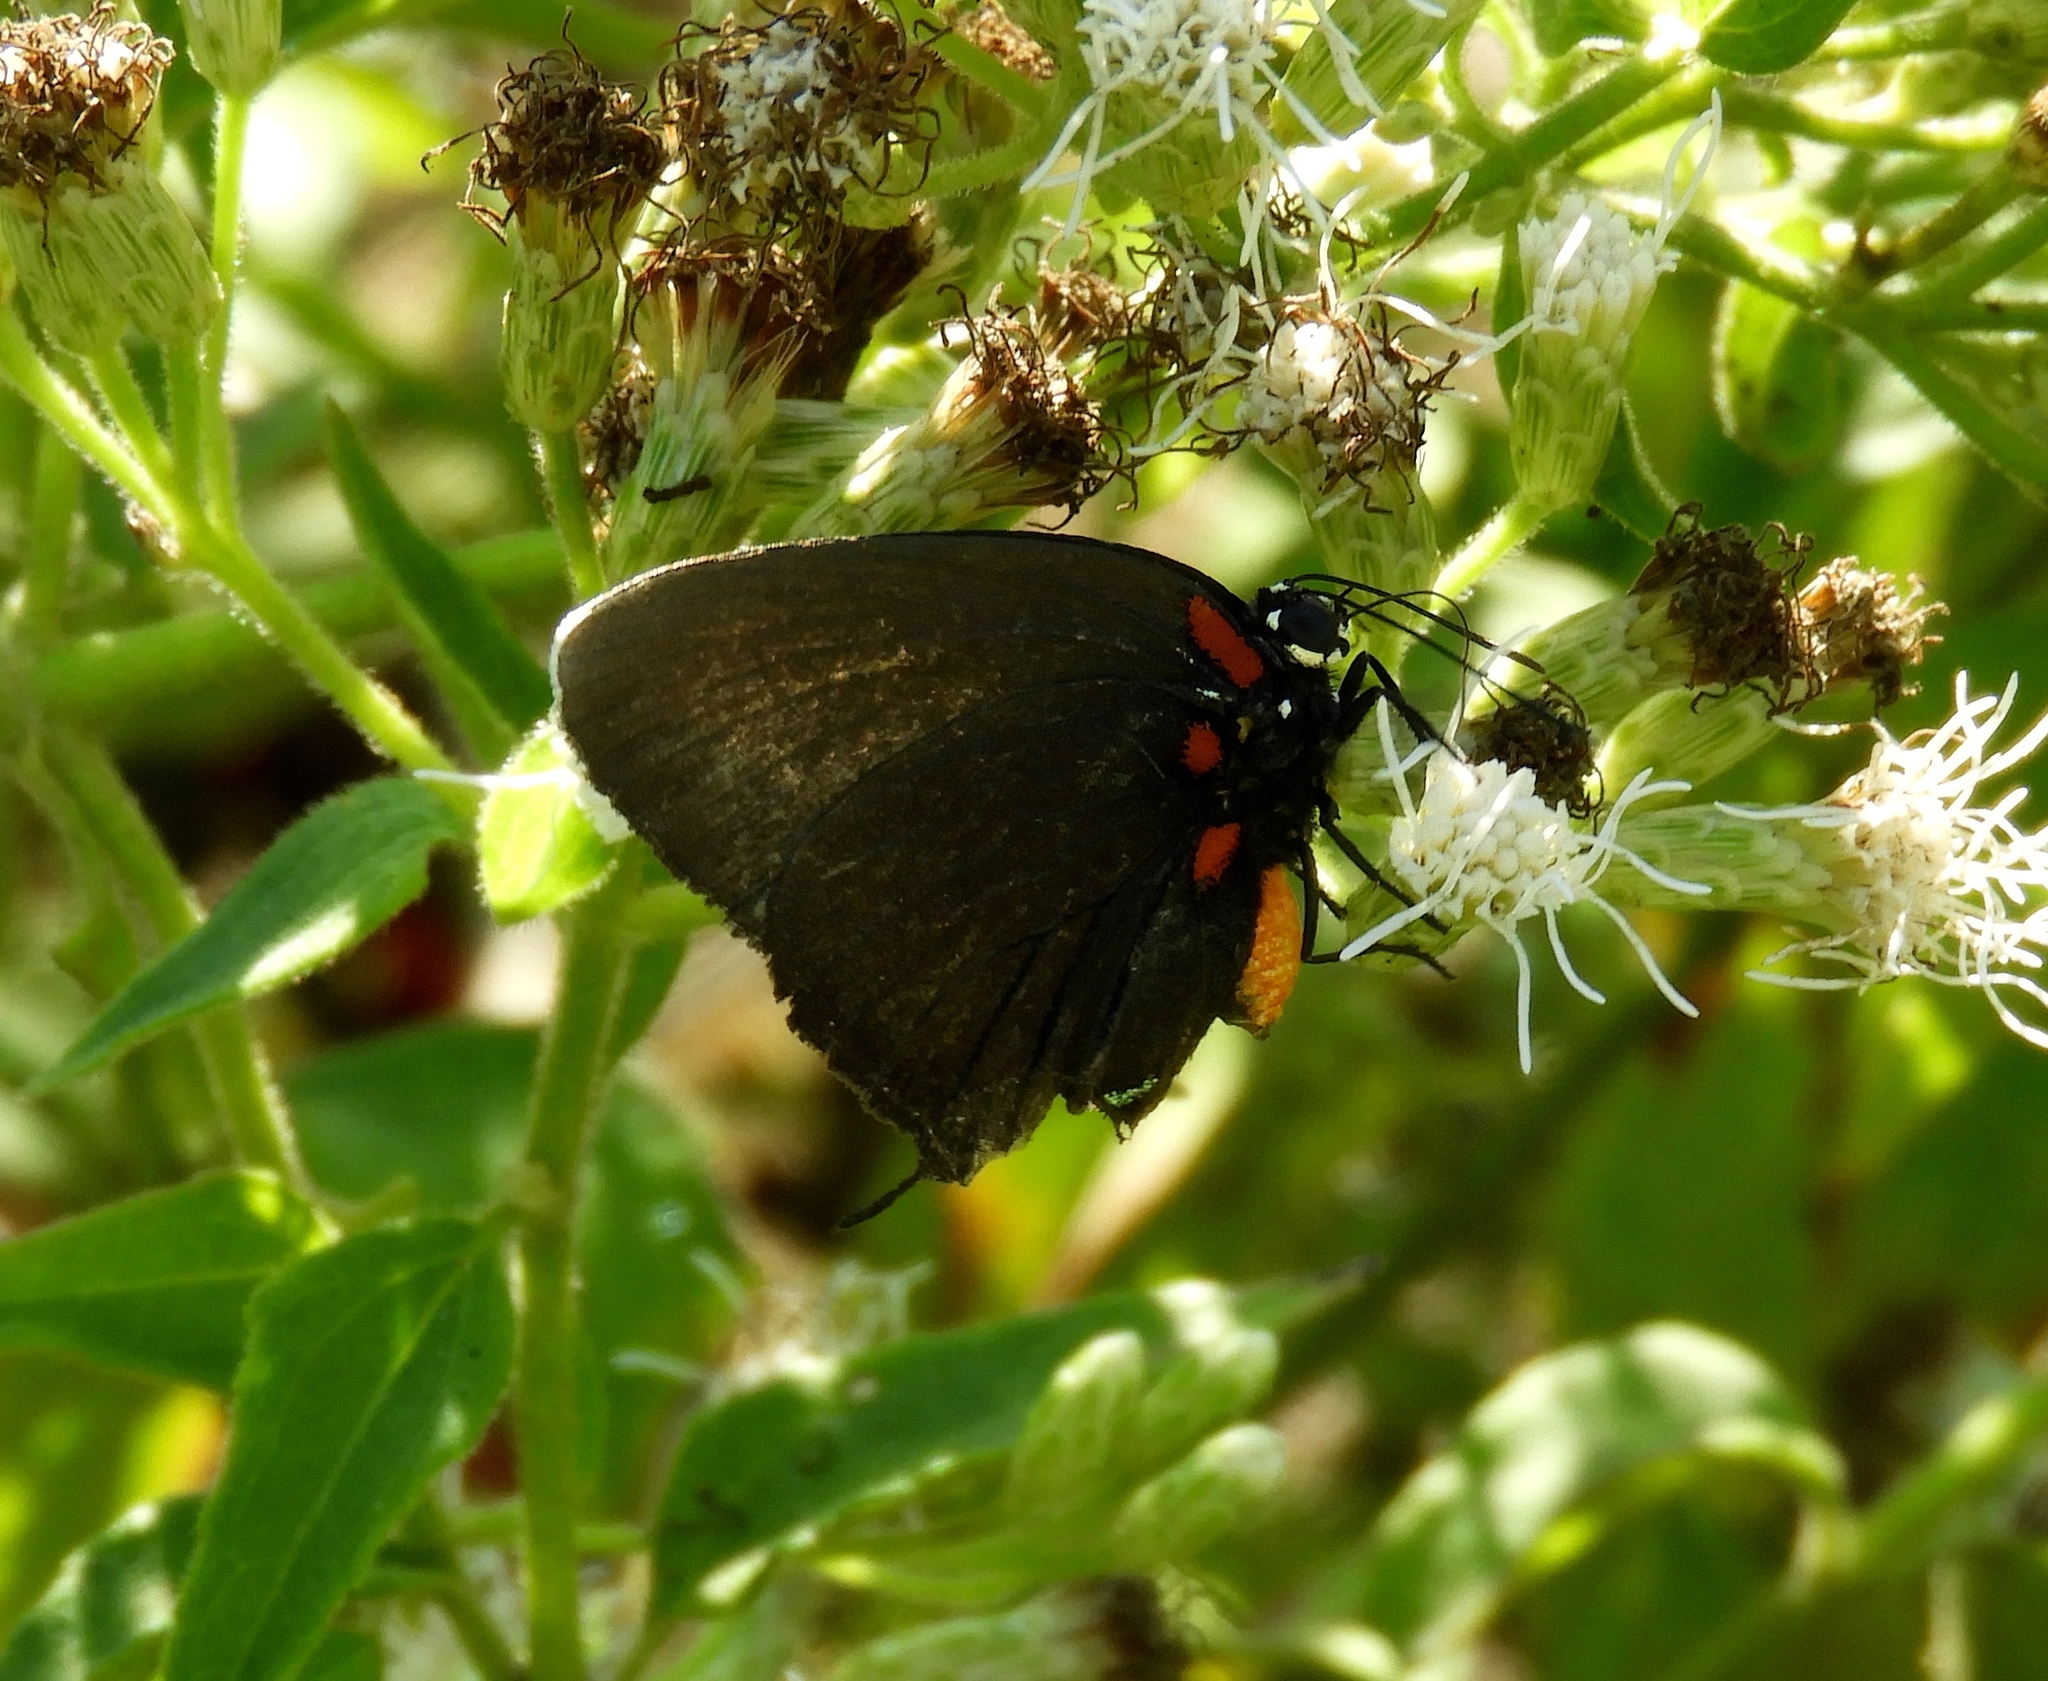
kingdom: Animalia
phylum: Arthropoda
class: Insecta
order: Lepidoptera
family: Lycaenidae
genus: Atlides
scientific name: Atlides halesus
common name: Great purple hairstreak
